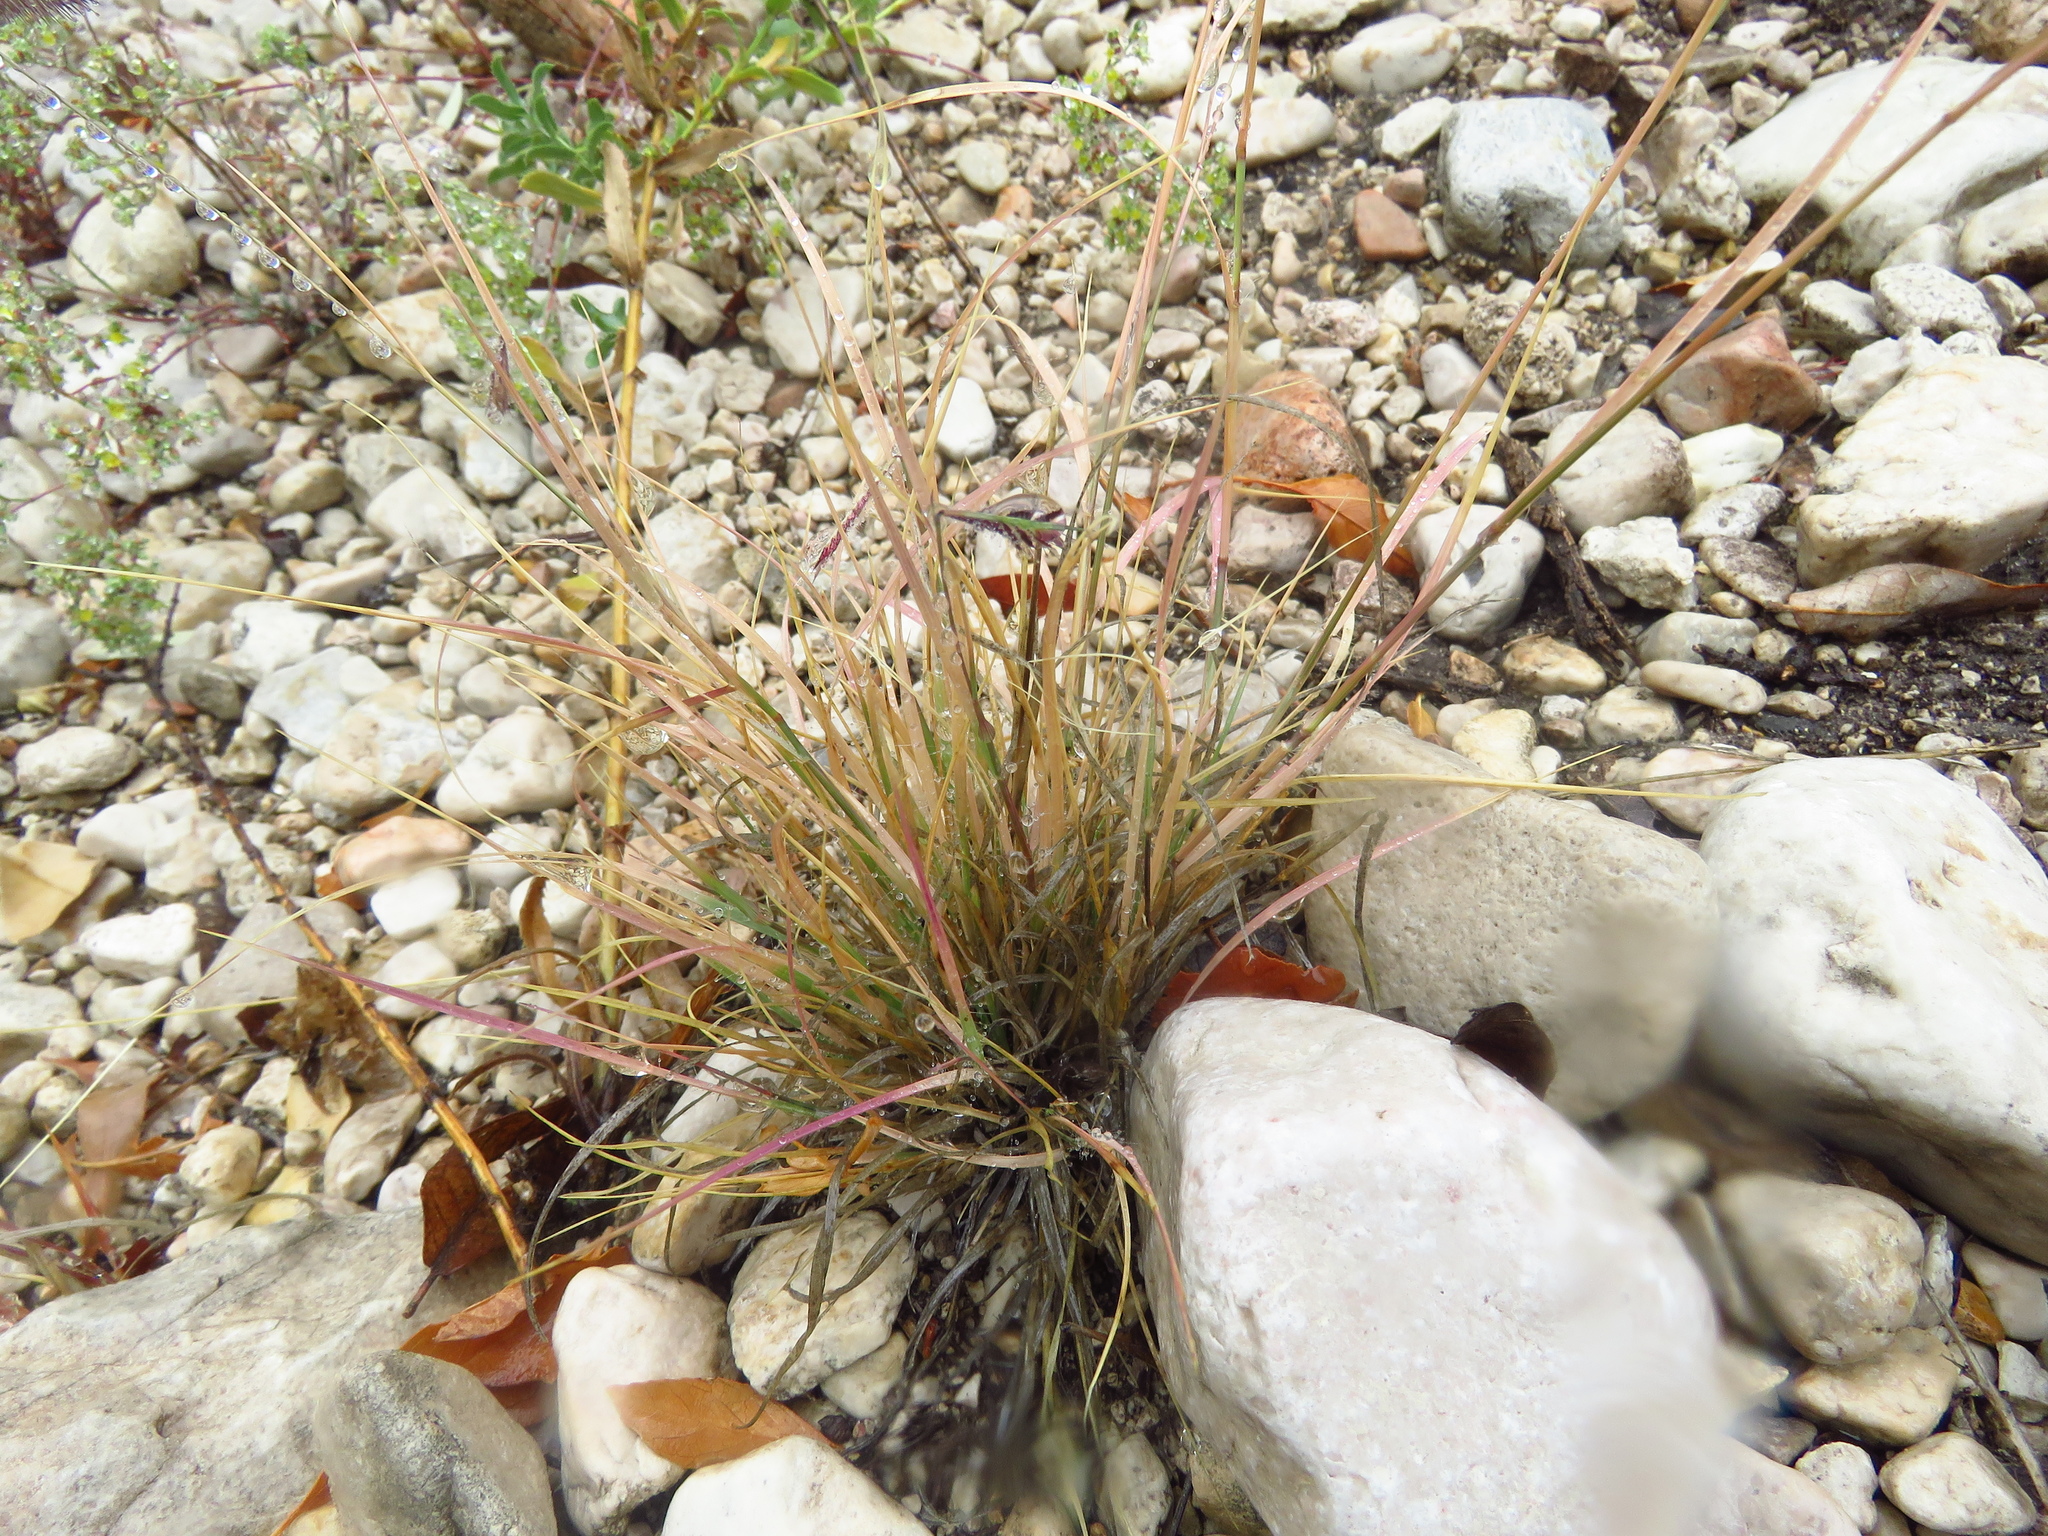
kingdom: Plantae
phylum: Tracheophyta
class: Liliopsida
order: Poales
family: Poaceae
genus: Bouteloua
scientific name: Bouteloua hirsuta
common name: Hairy grama
